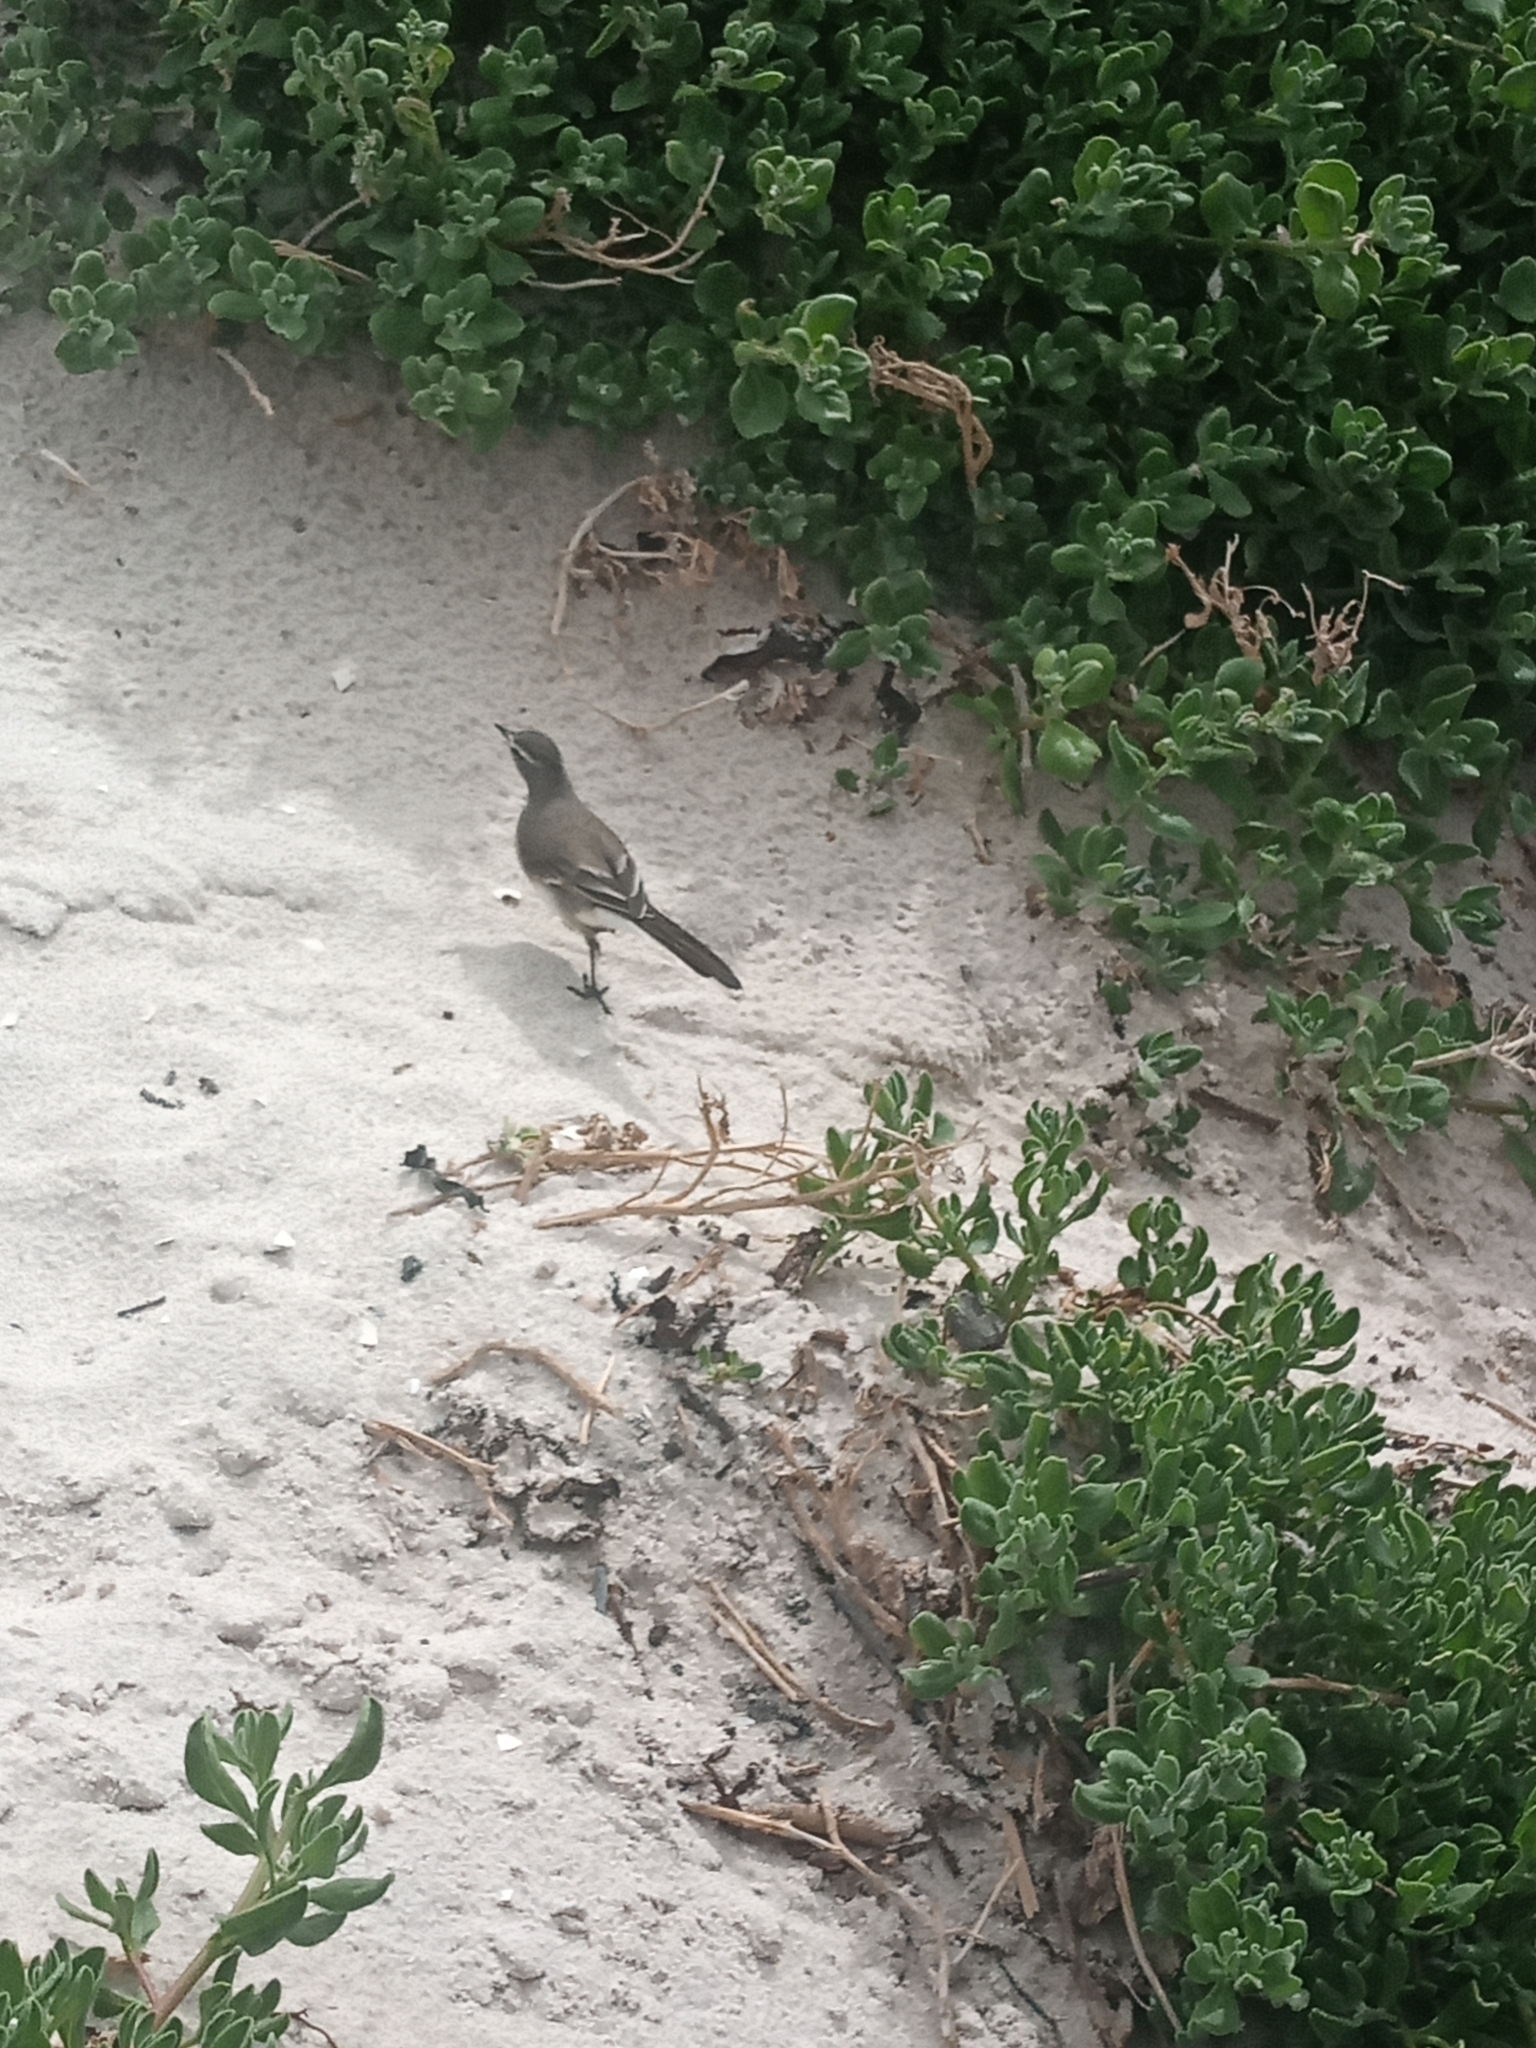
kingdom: Animalia
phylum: Chordata
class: Aves
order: Passeriformes
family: Motacillidae
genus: Motacilla
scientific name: Motacilla capensis
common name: Cape wagtail
